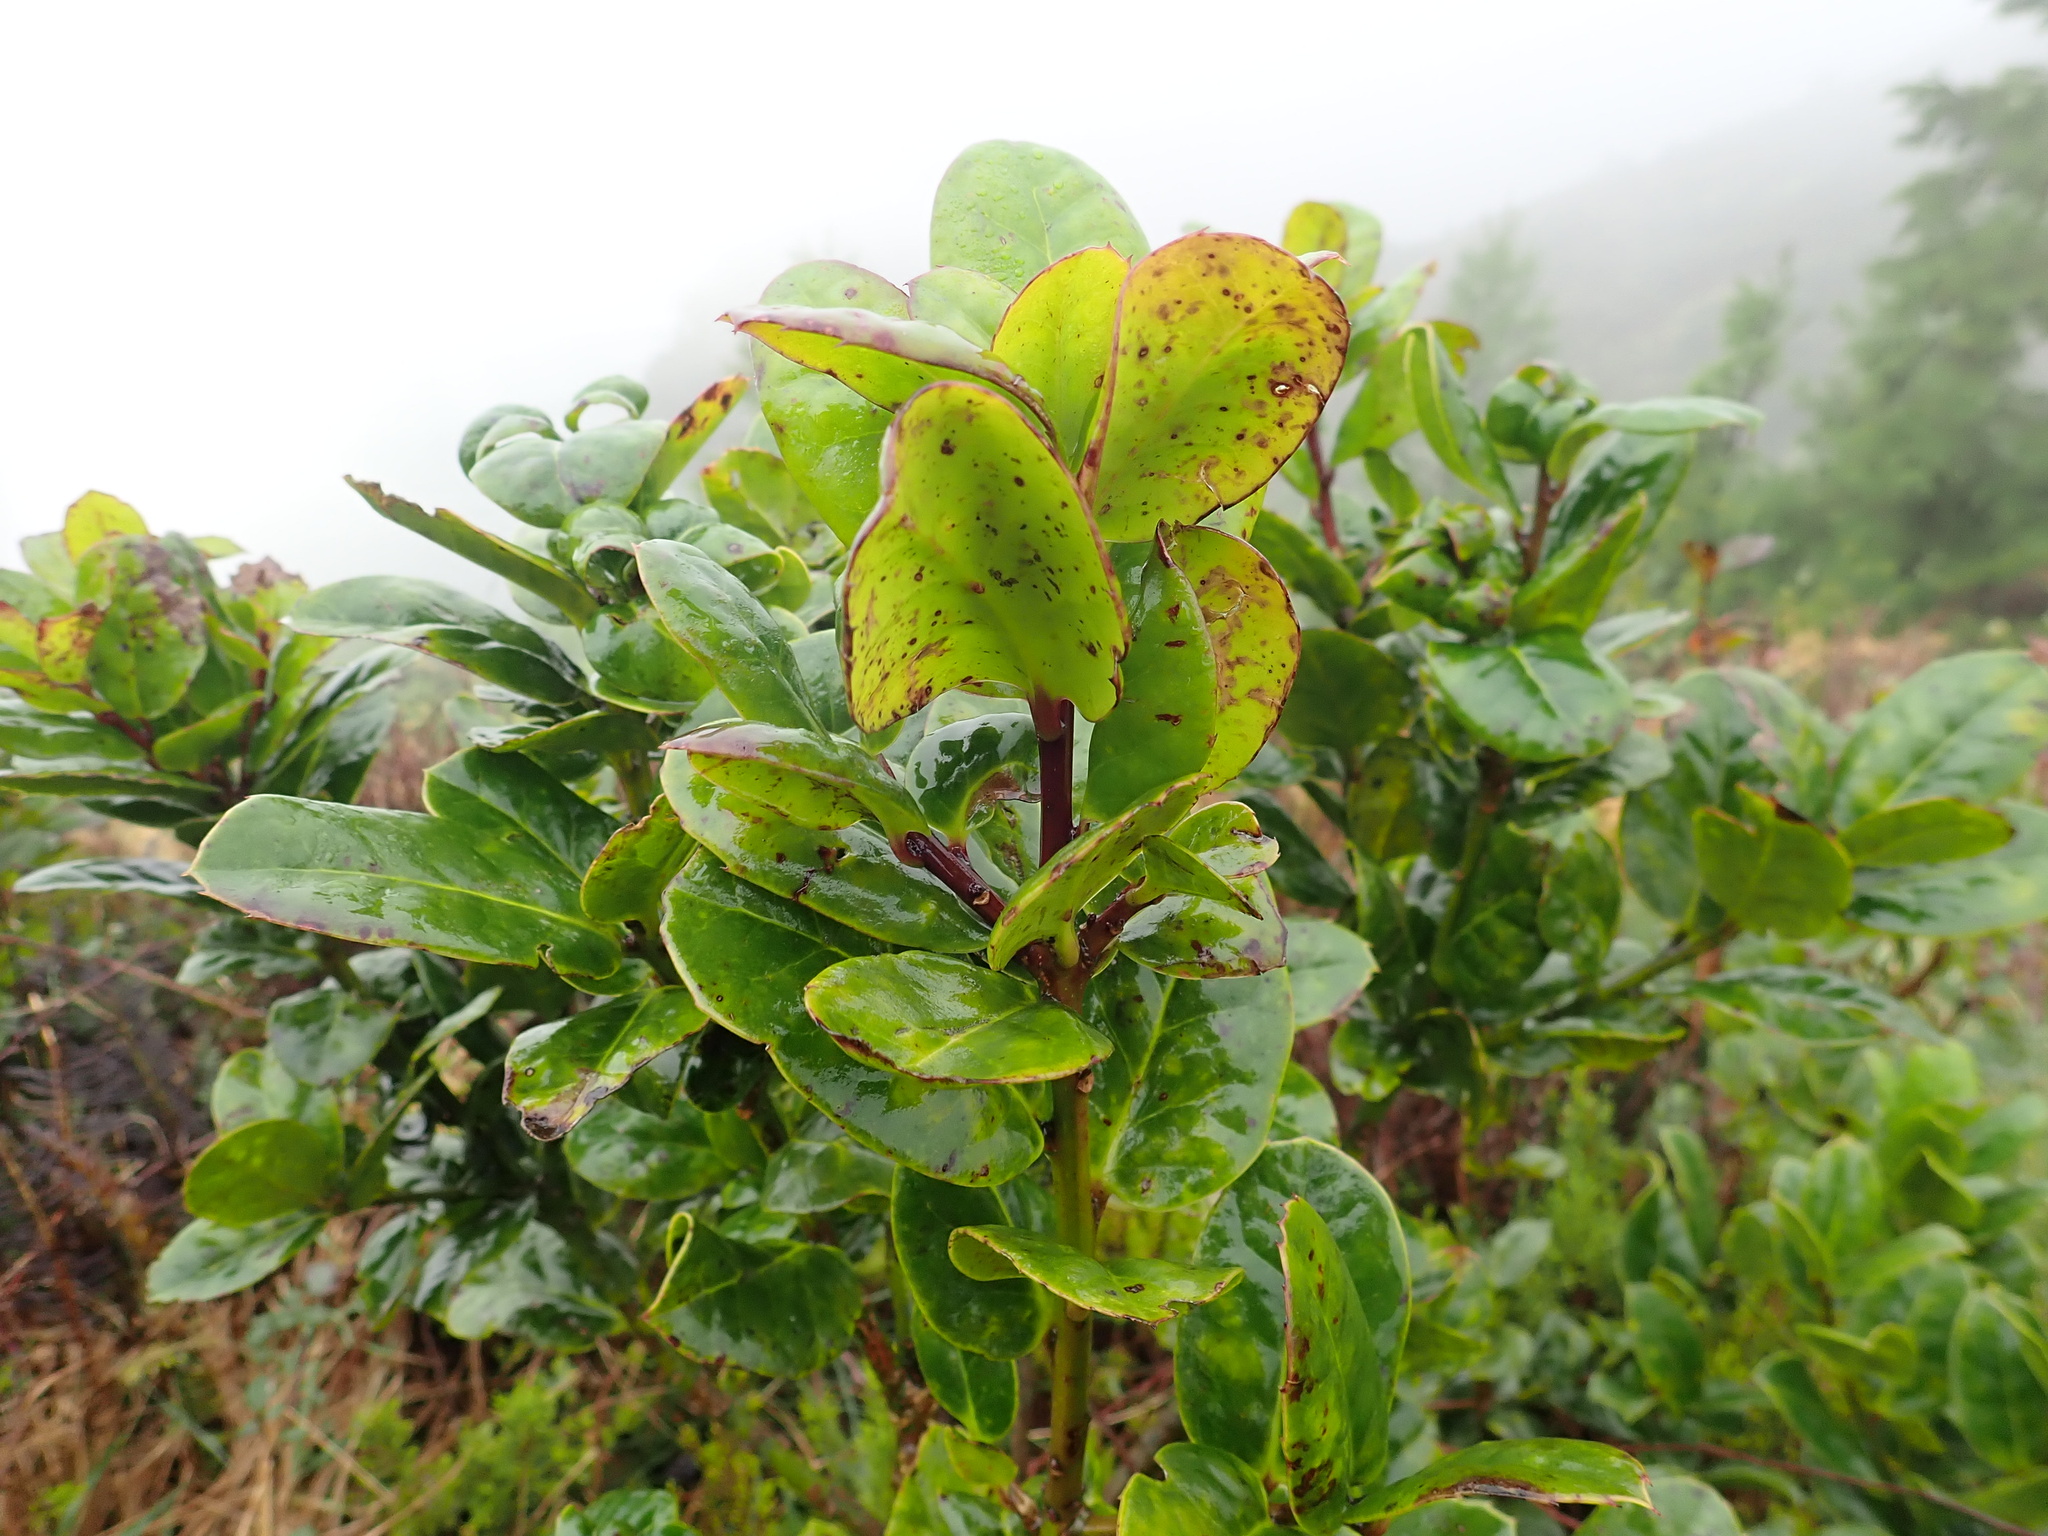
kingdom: Plantae
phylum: Tracheophyta
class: Magnoliopsida
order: Aquifoliales
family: Aquifoliaceae
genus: Ilex
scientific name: Ilex perado
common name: Madeira holly
